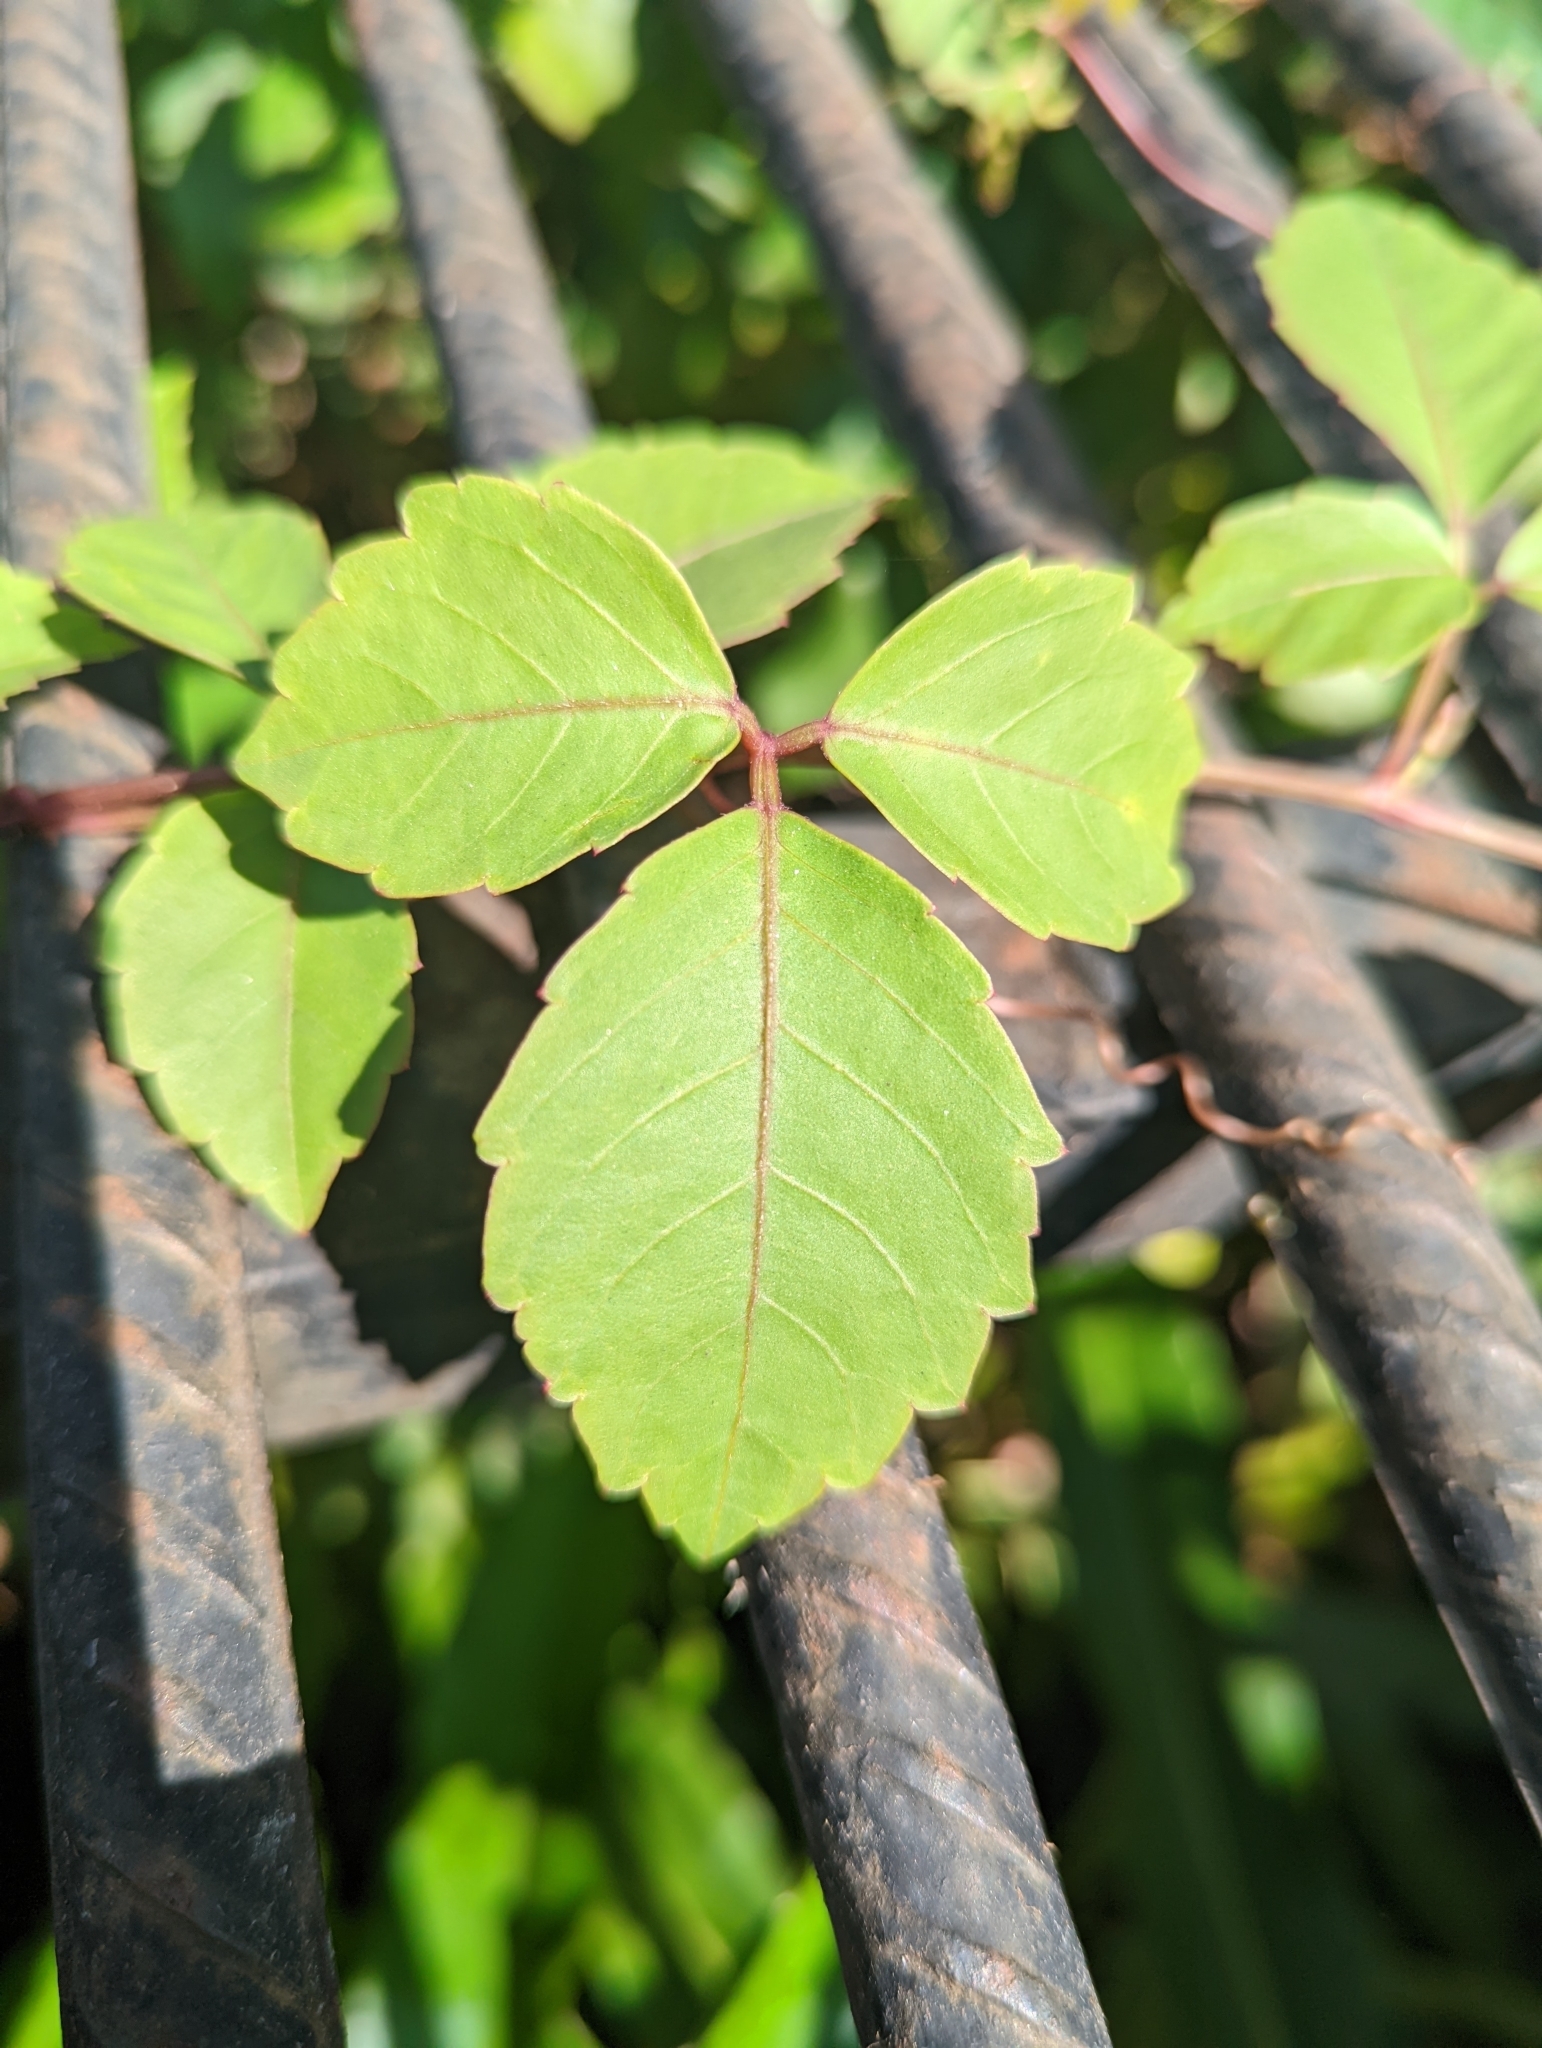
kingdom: Plantae
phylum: Tracheophyta
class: Magnoliopsida
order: Vitales
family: Vitaceae
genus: Causonis
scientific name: Causonis trifolia
